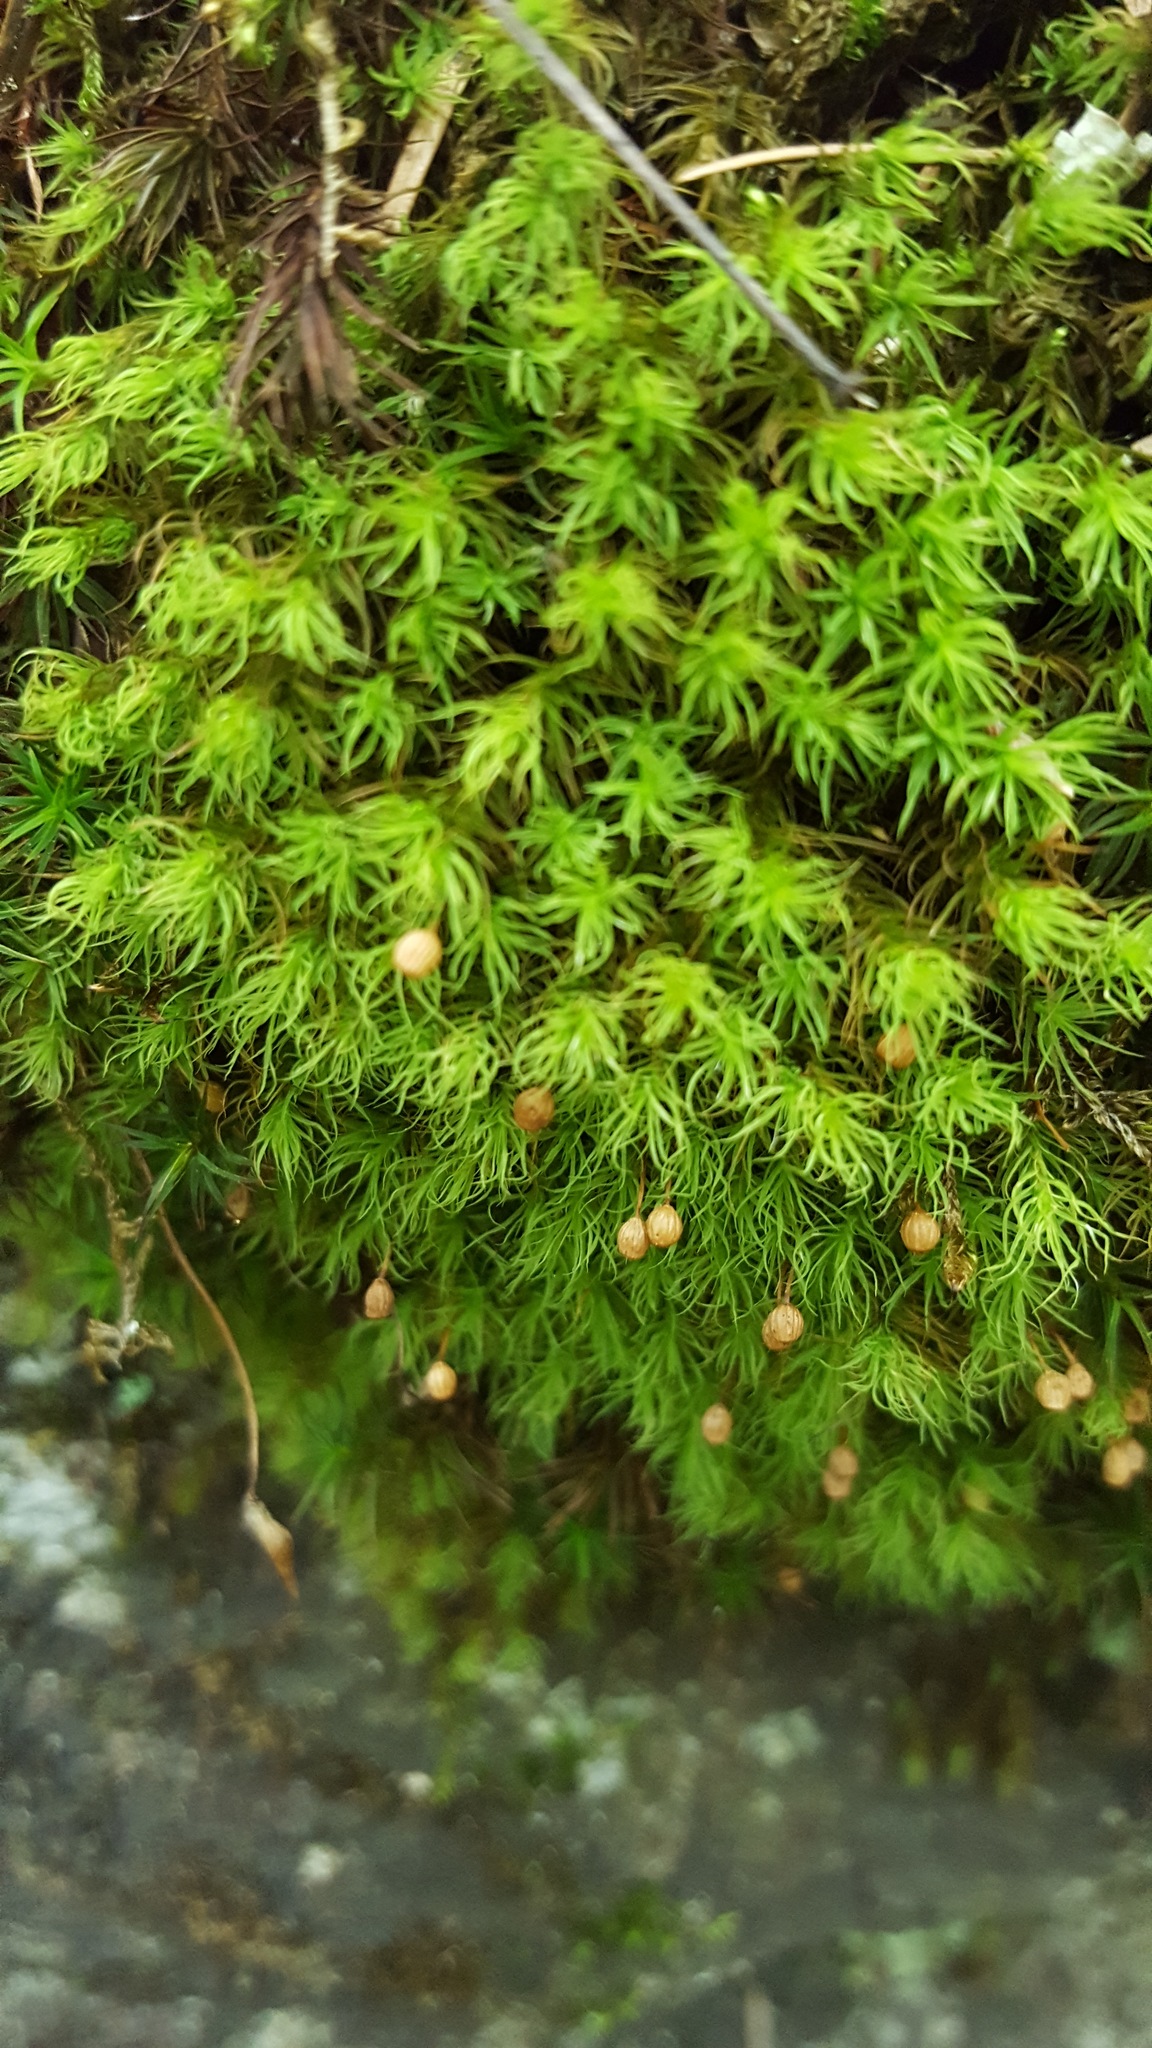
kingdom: Plantae
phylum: Bryophyta
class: Bryopsida
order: Bartramiales
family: Bartramiaceae
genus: Bartramia
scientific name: Bartramia ithyphylla
